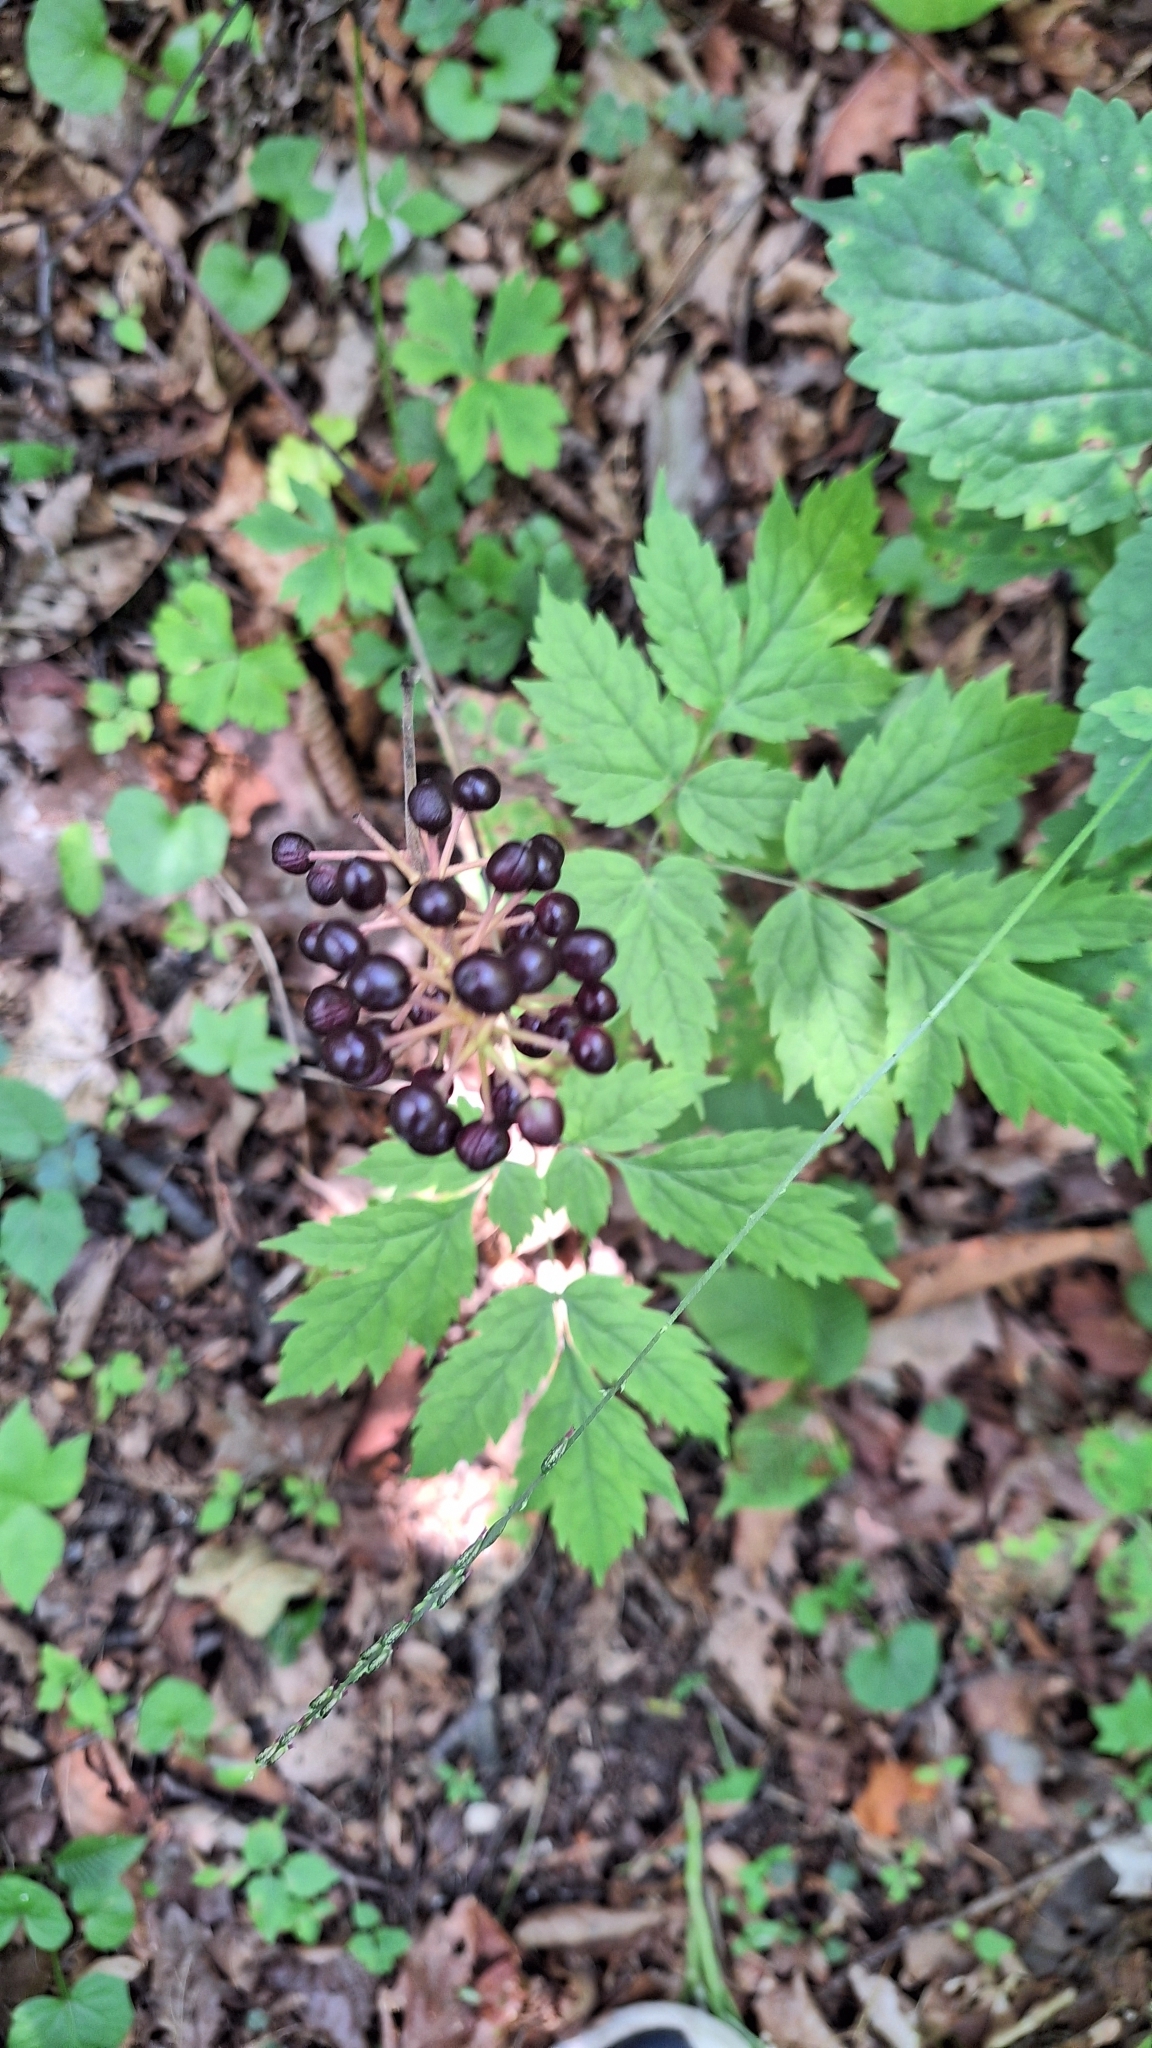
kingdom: Plantae
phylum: Tracheophyta
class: Magnoliopsida
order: Ranunculales
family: Ranunculaceae
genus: Actaea
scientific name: Actaea asiatica
